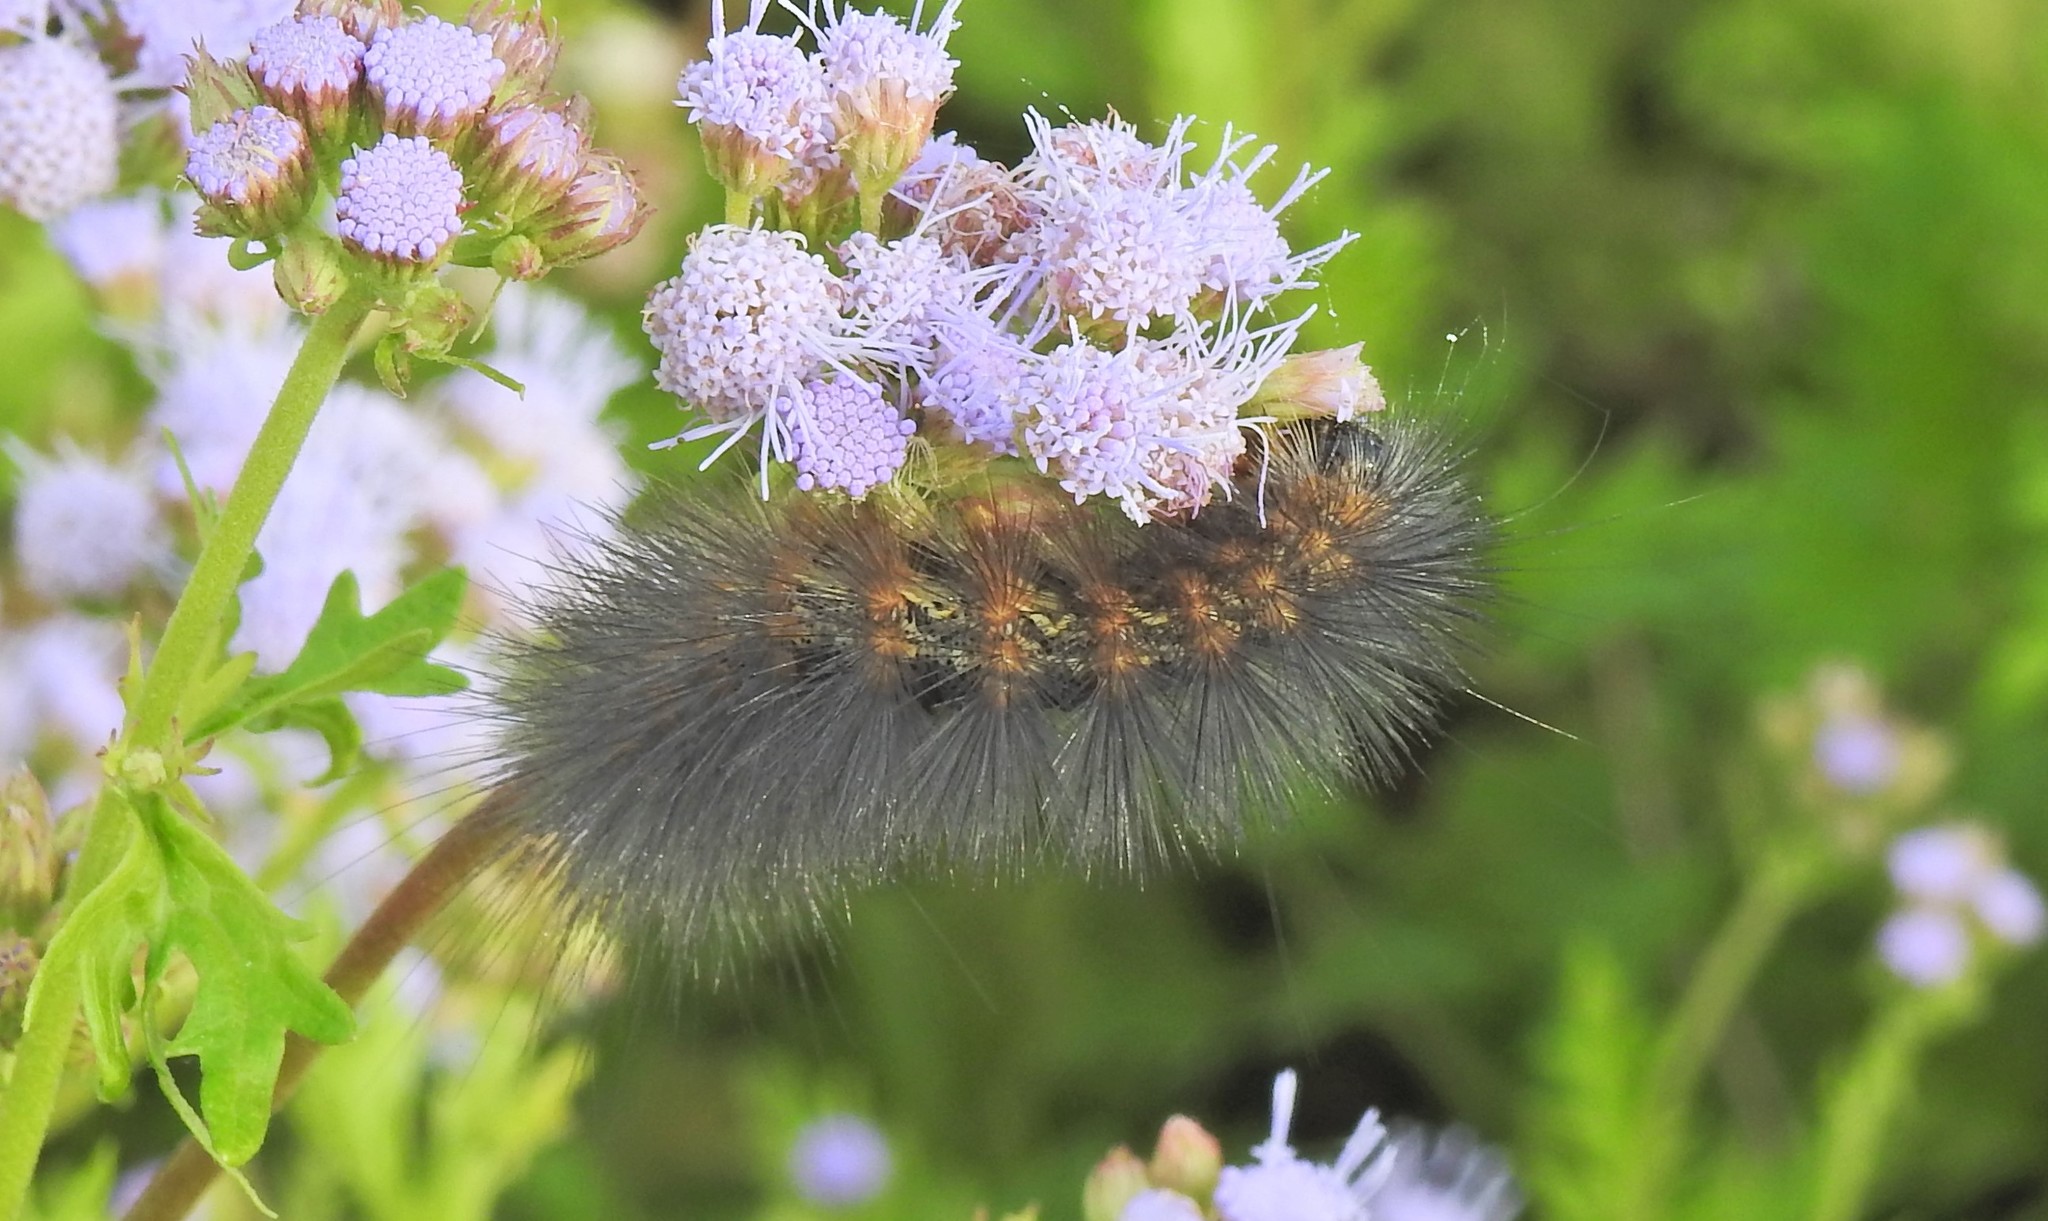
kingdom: Animalia
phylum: Arthropoda
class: Insecta
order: Lepidoptera
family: Erebidae
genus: Estigmene
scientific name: Estigmene acrea
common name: Salt marsh moth
